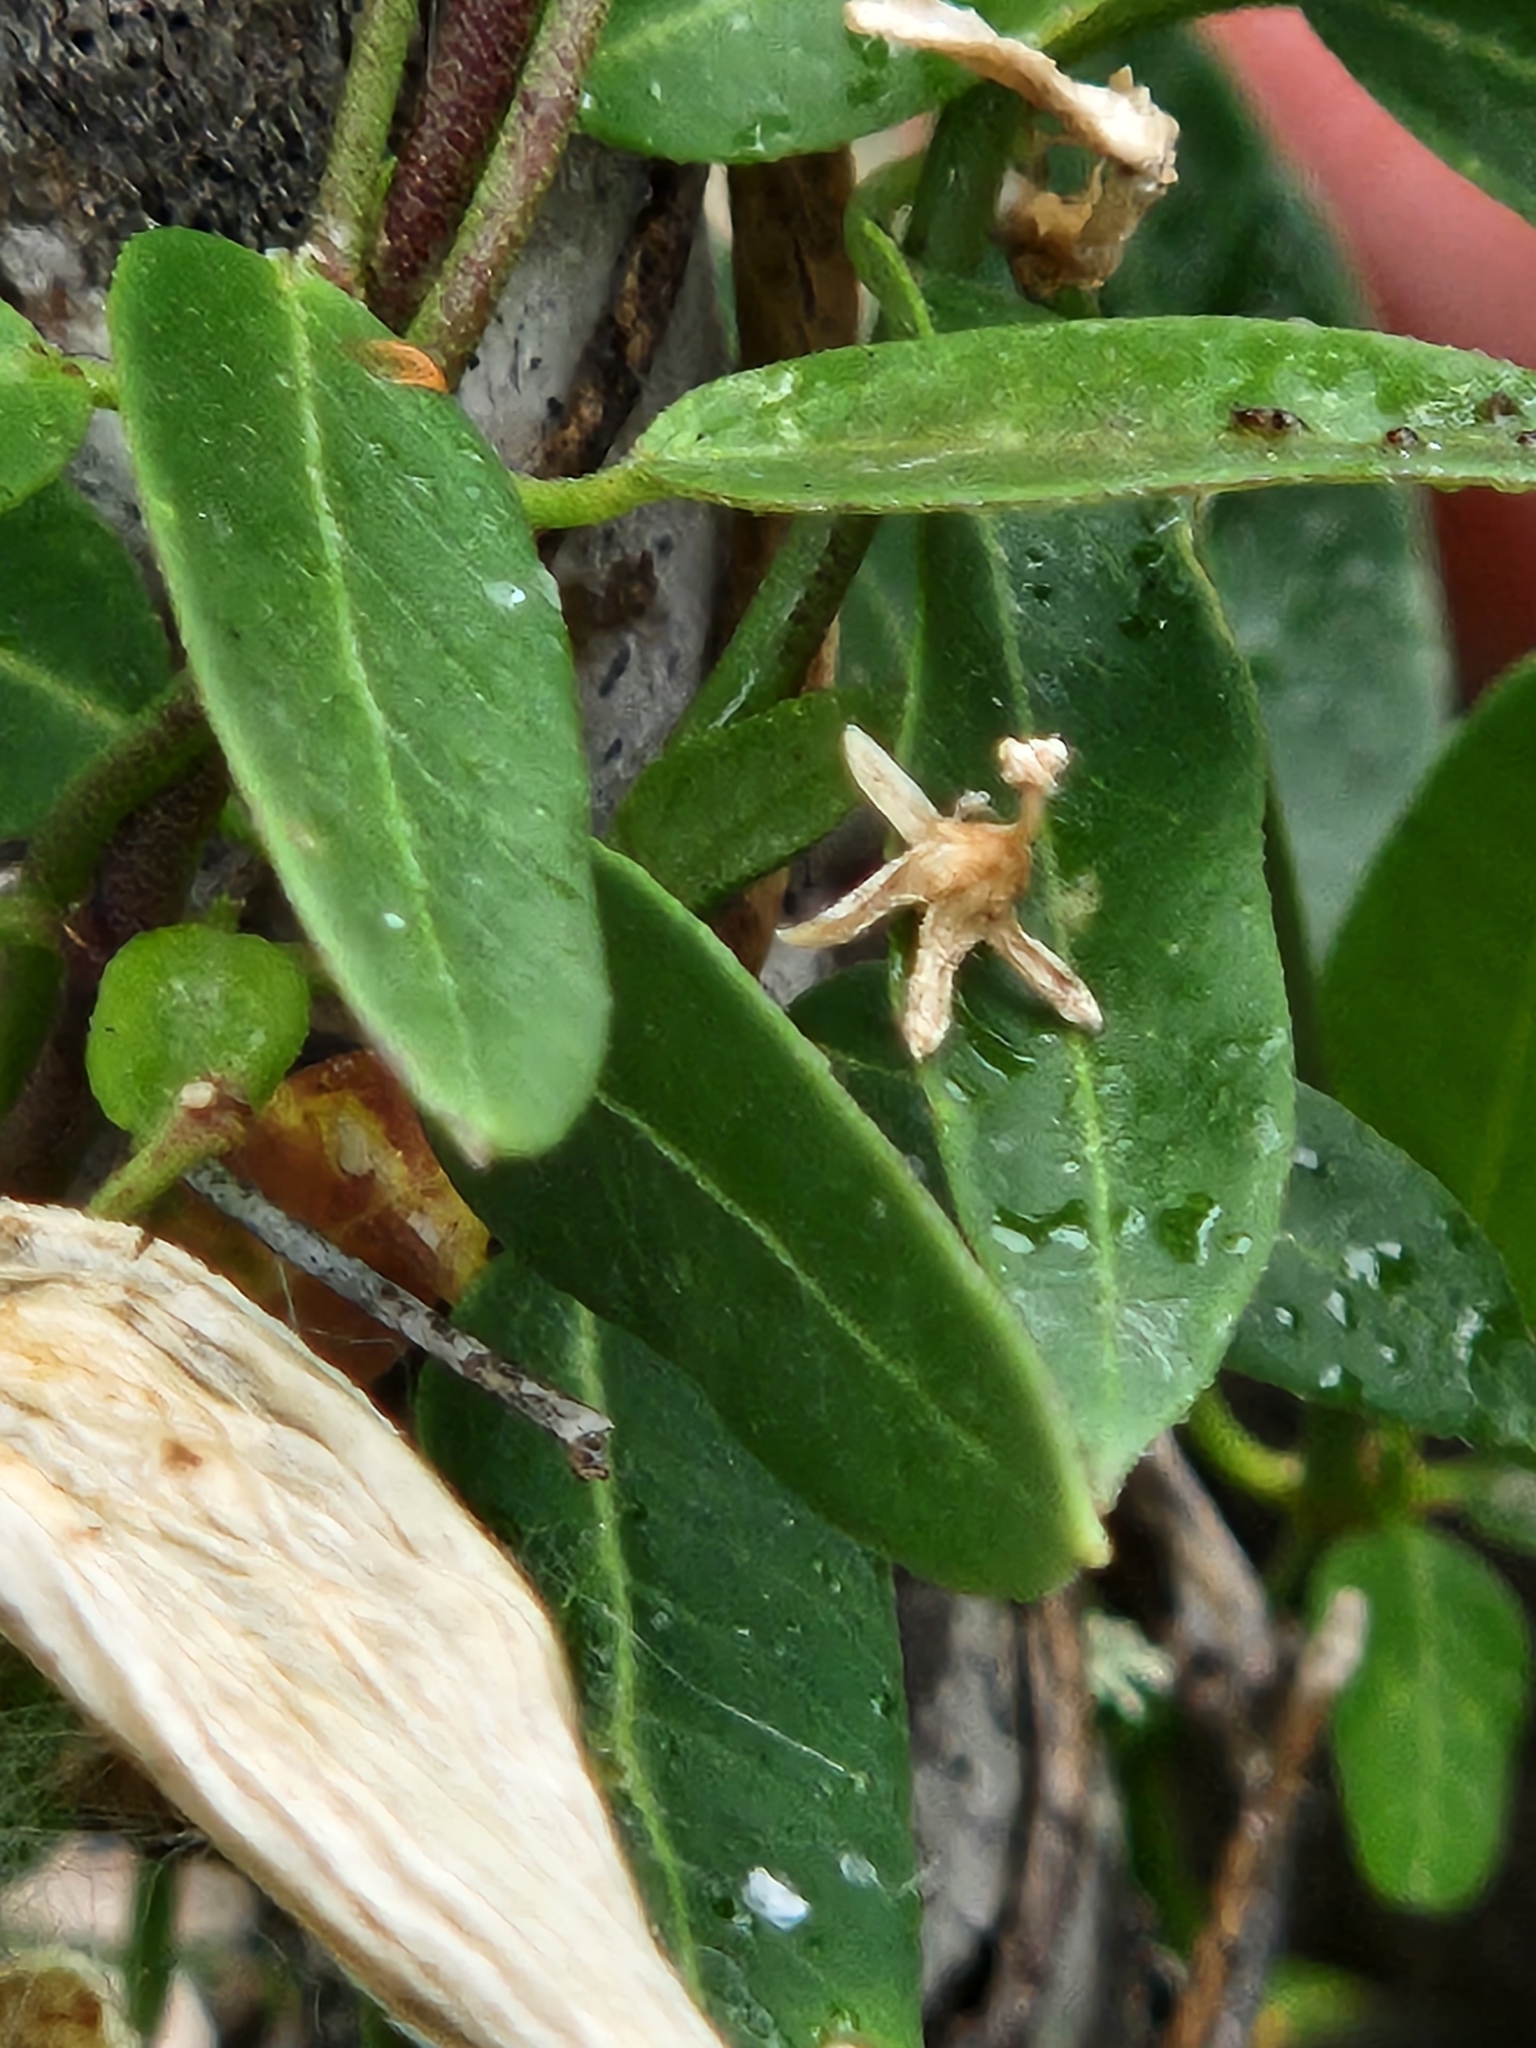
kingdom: Plantae
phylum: Tracheophyta
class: Magnoliopsida
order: Gentianales
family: Apocynaceae
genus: Metastelma
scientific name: Metastelma palmeri
